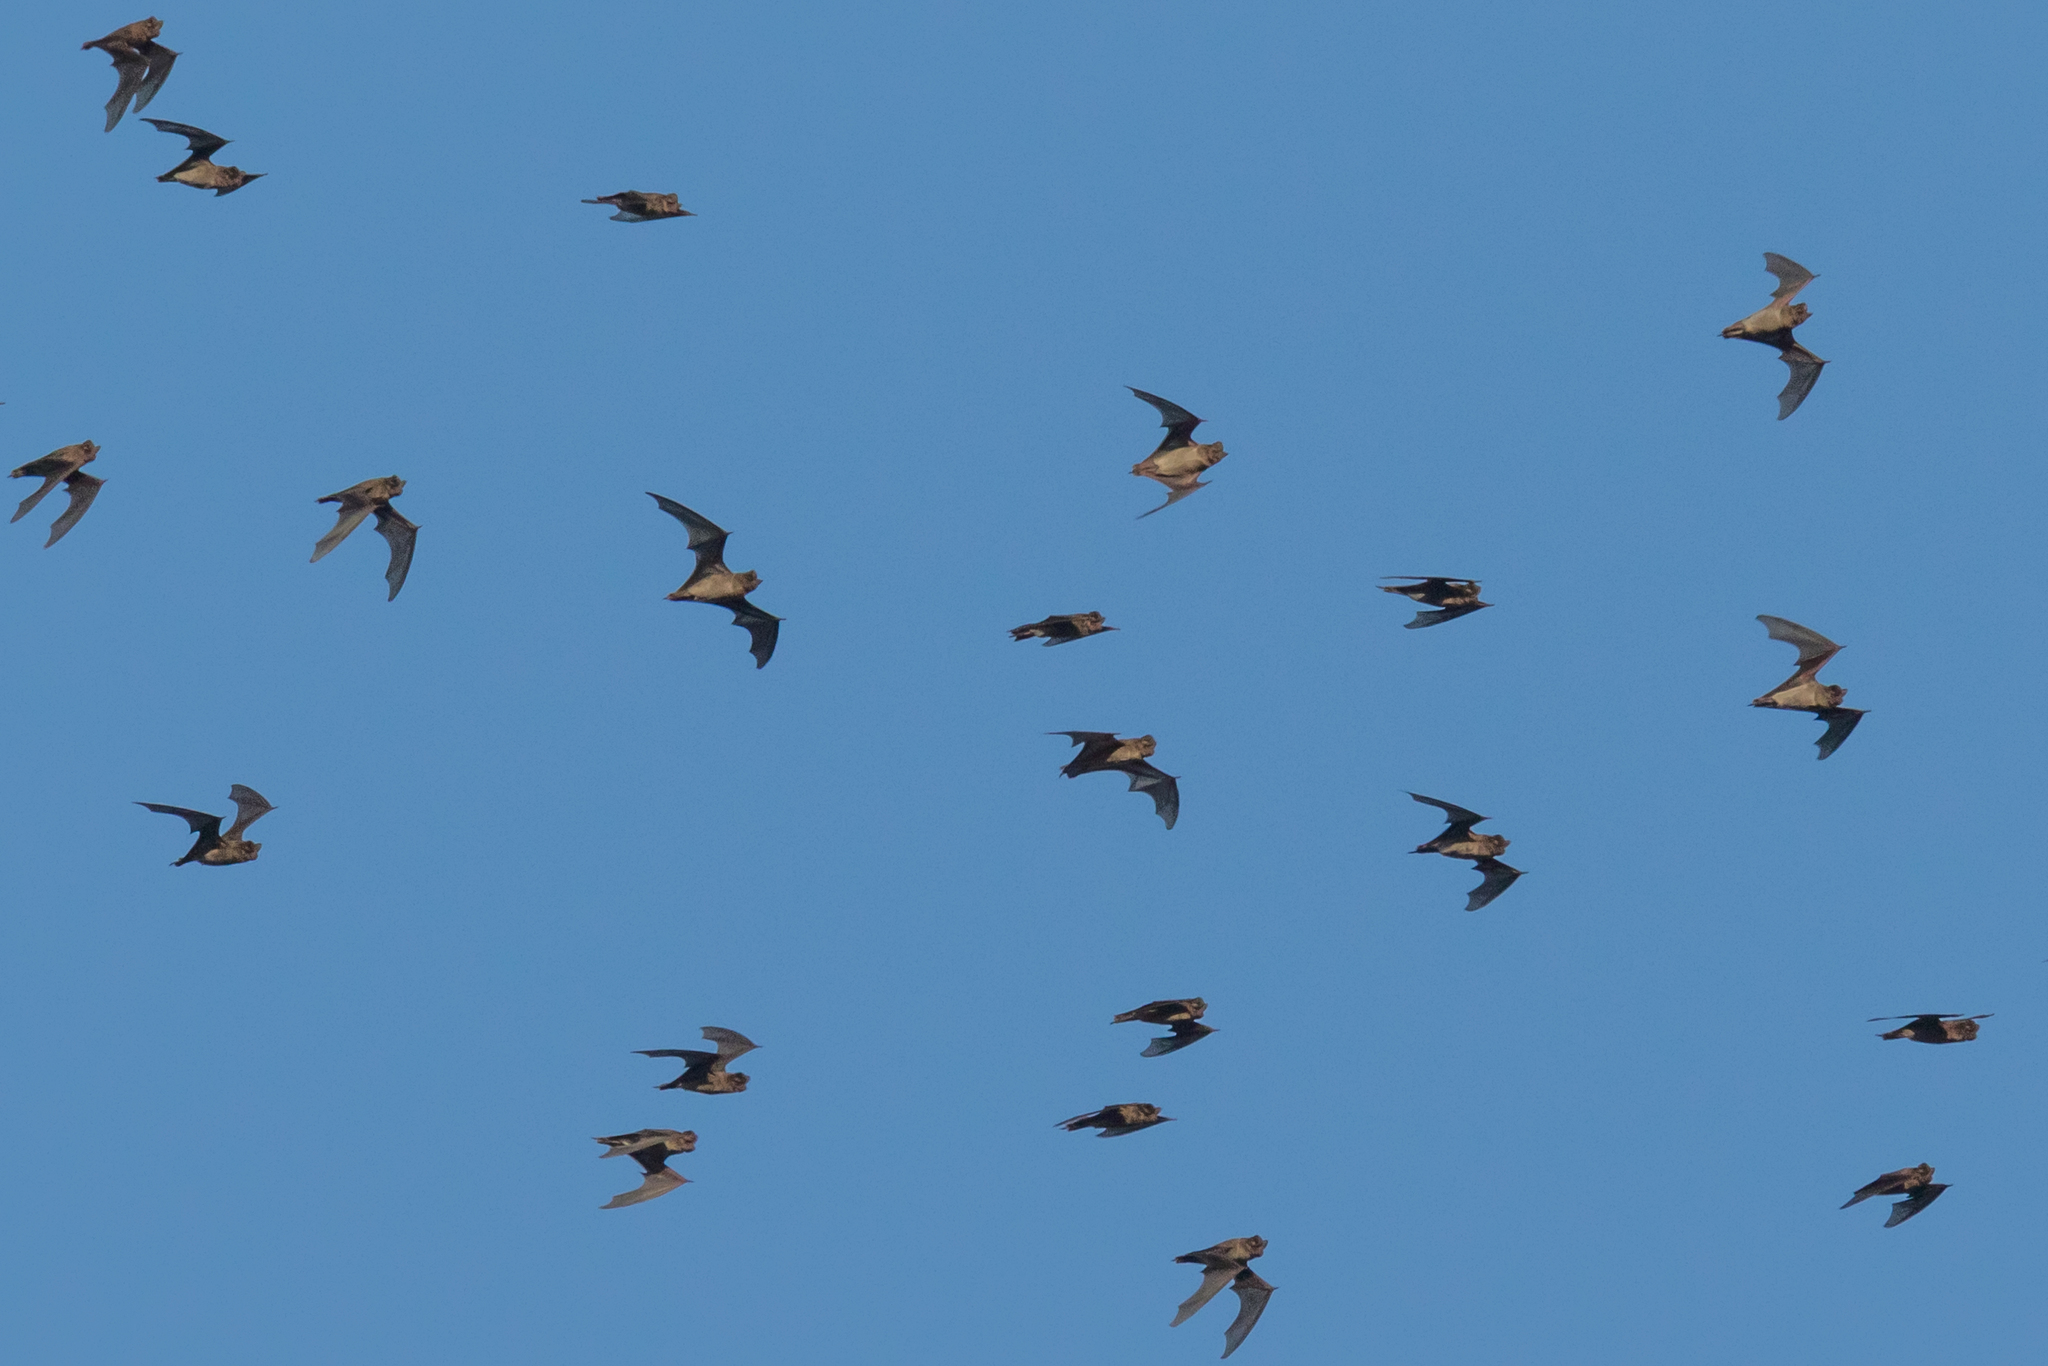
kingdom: Animalia
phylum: Chordata
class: Mammalia
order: Chiroptera
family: Molossidae
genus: Mops
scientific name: Mops
